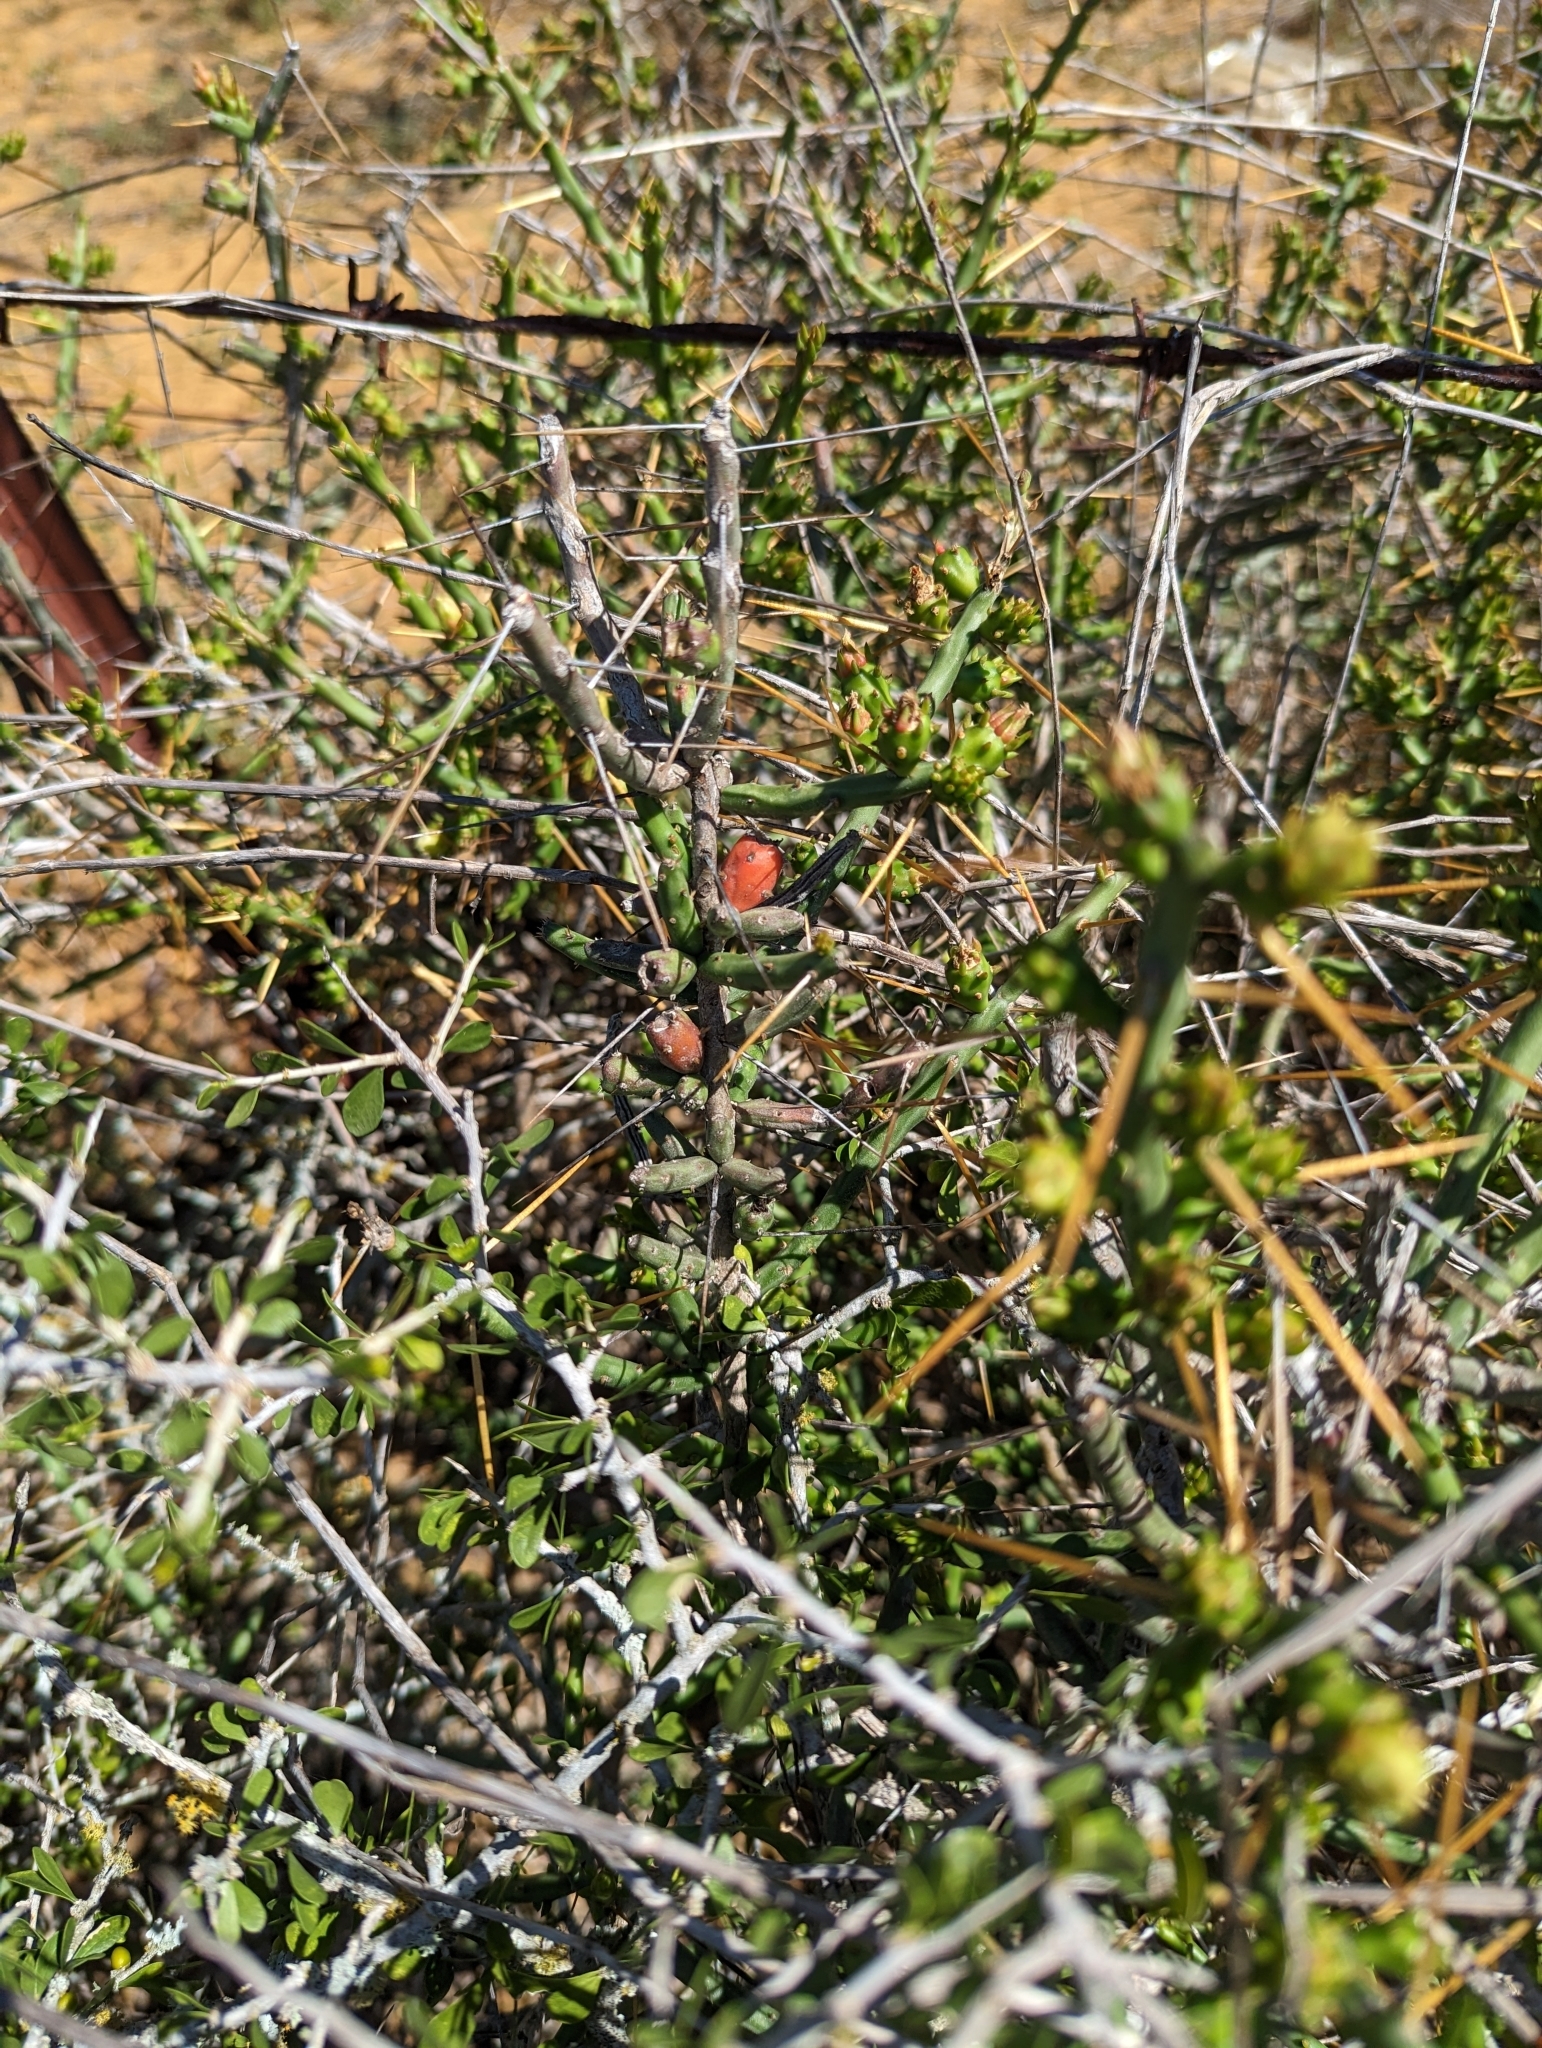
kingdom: Plantae
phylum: Tracheophyta
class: Magnoliopsida
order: Caryophyllales
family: Cactaceae
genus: Cylindropuntia
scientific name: Cylindropuntia leptocaulis
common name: Christmas cactus
